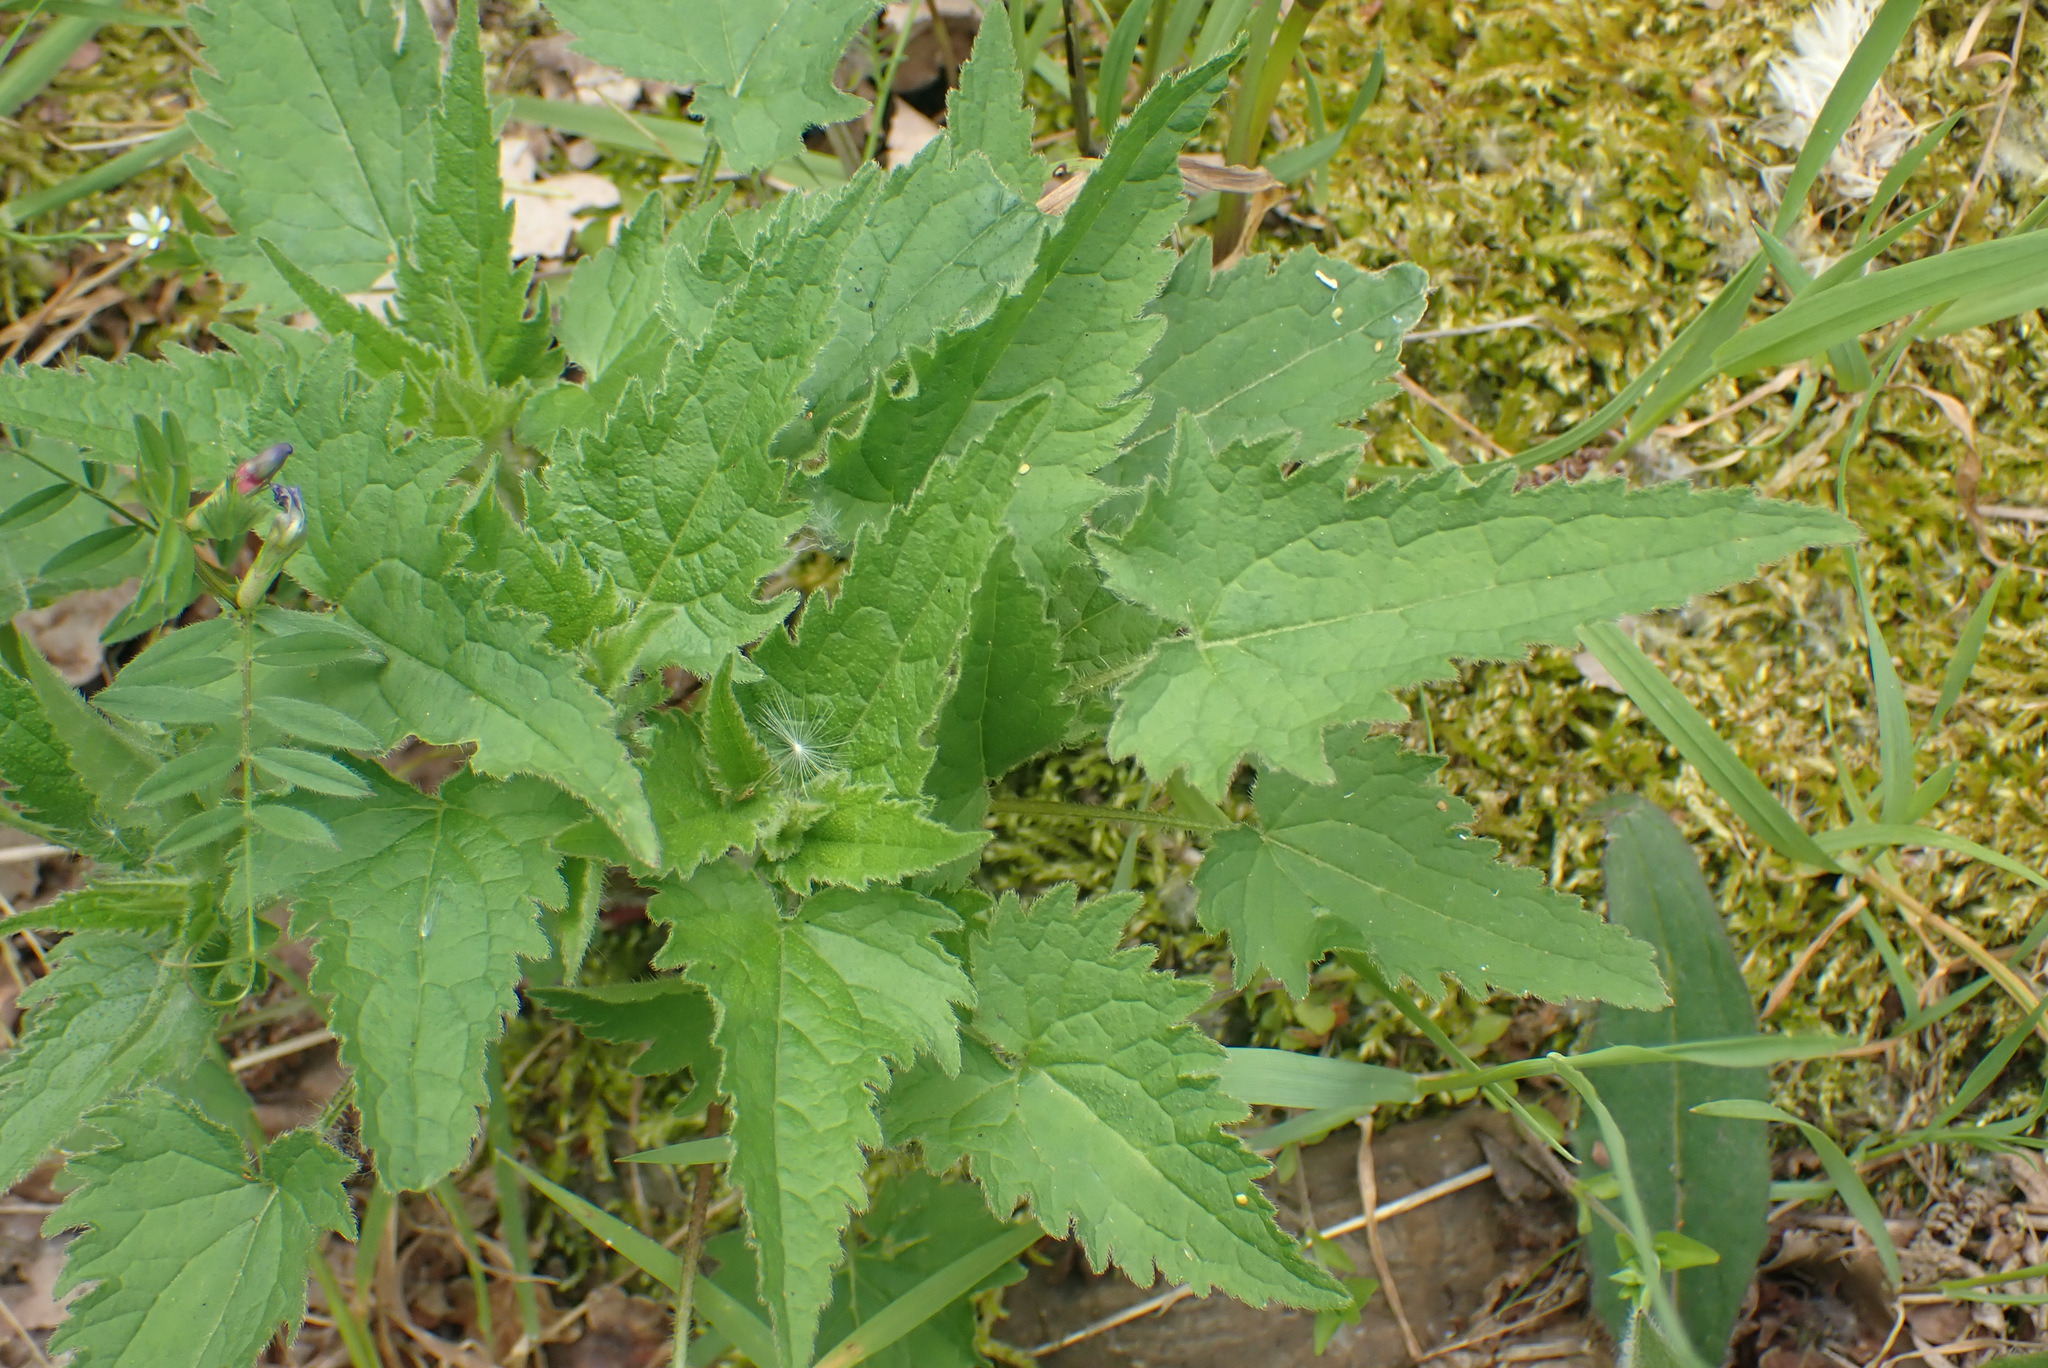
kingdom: Plantae
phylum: Tracheophyta
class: Magnoliopsida
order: Asterales
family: Campanulaceae
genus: Campanula
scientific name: Campanula trachelium
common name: Nettle-leaved bellflower
